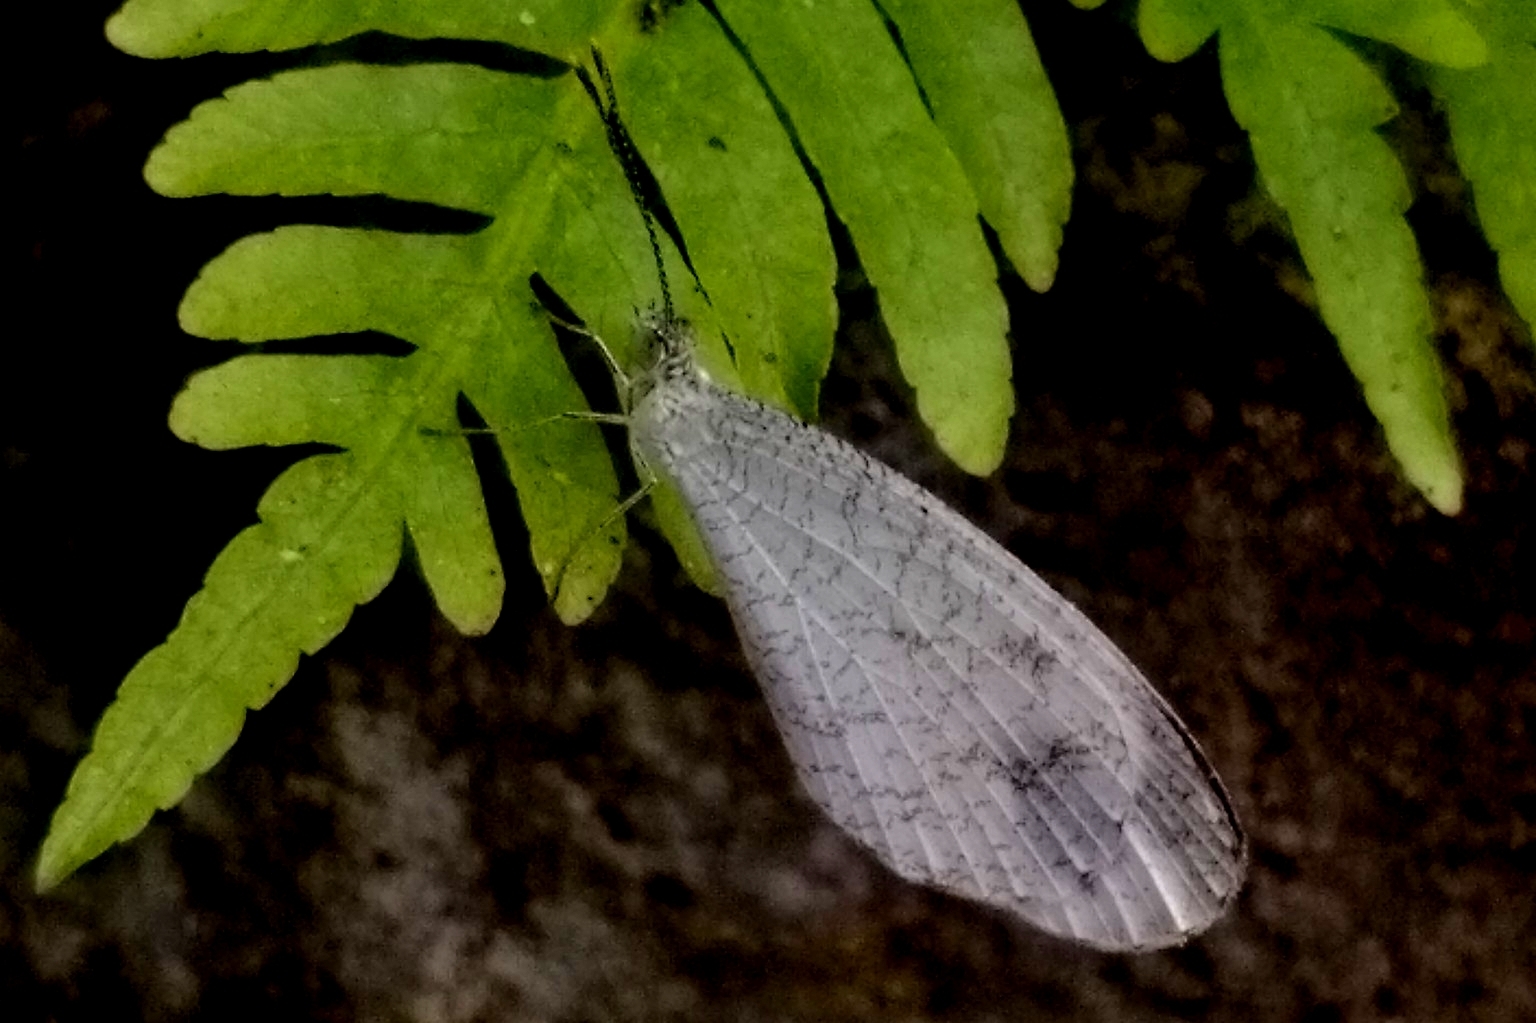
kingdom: Animalia
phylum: Arthropoda
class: Insecta
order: Lepidoptera
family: Pieridae
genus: Leptosia
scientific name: Leptosia nina
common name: Psyche
